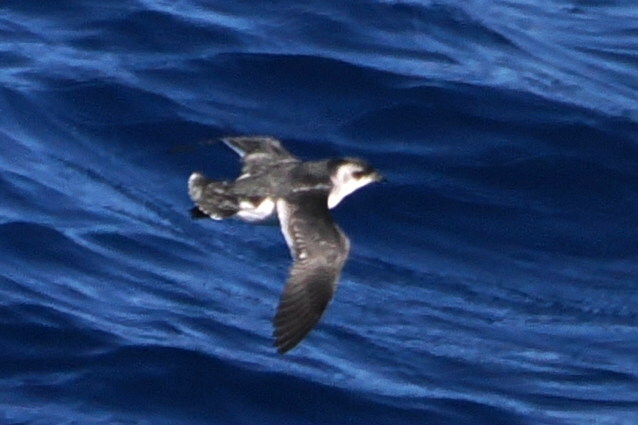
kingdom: Animalia
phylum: Chordata
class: Aves
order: Procellariiformes
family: Pelecanoididae
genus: Pelecanoides
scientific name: Pelecanoides georgicus
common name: South georgia diving-petrel
